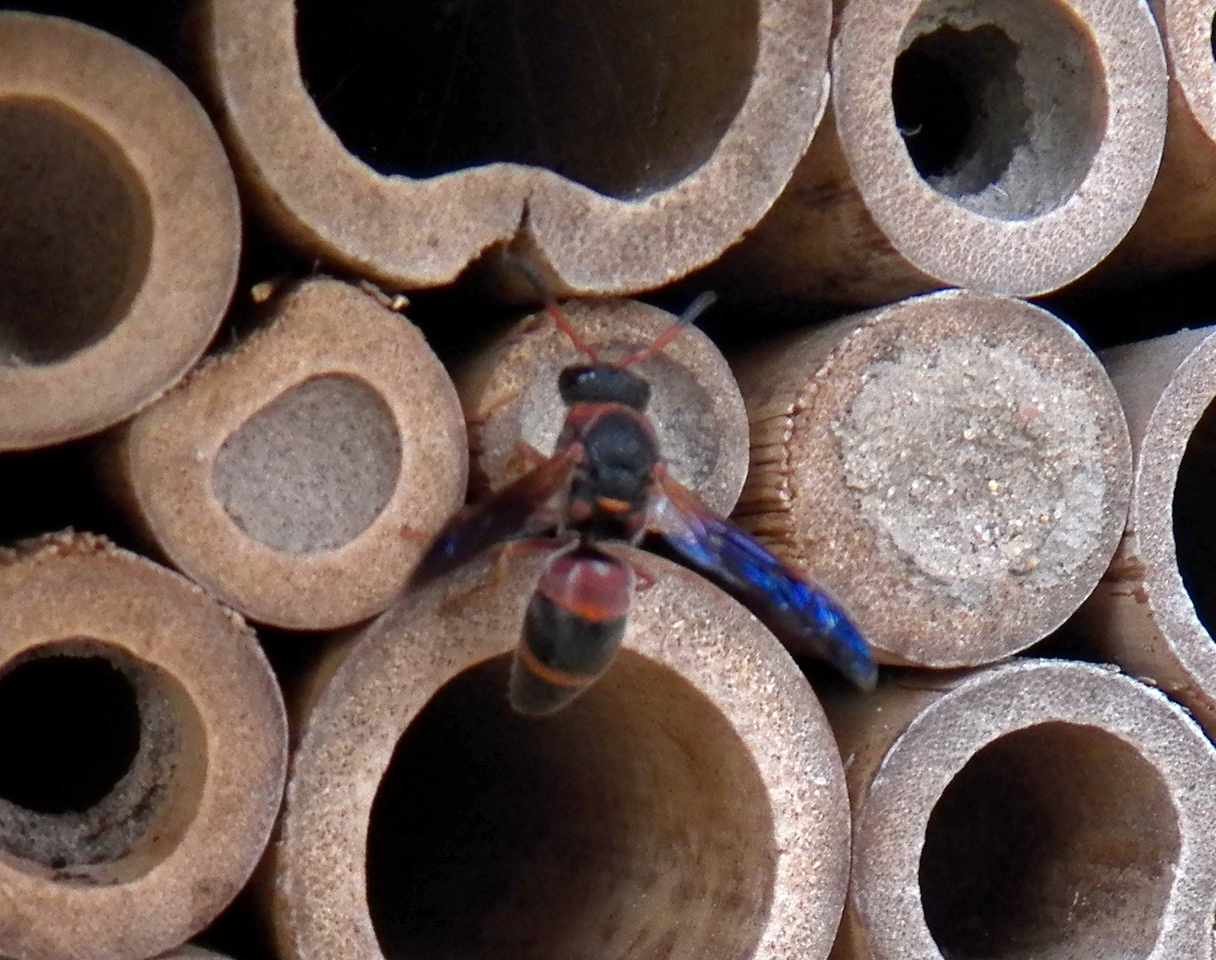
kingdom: Animalia
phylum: Arthropoda
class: Insecta
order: Hymenoptera
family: Eumenidae
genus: Pachodynerus
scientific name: Pachodynerus erynnis
